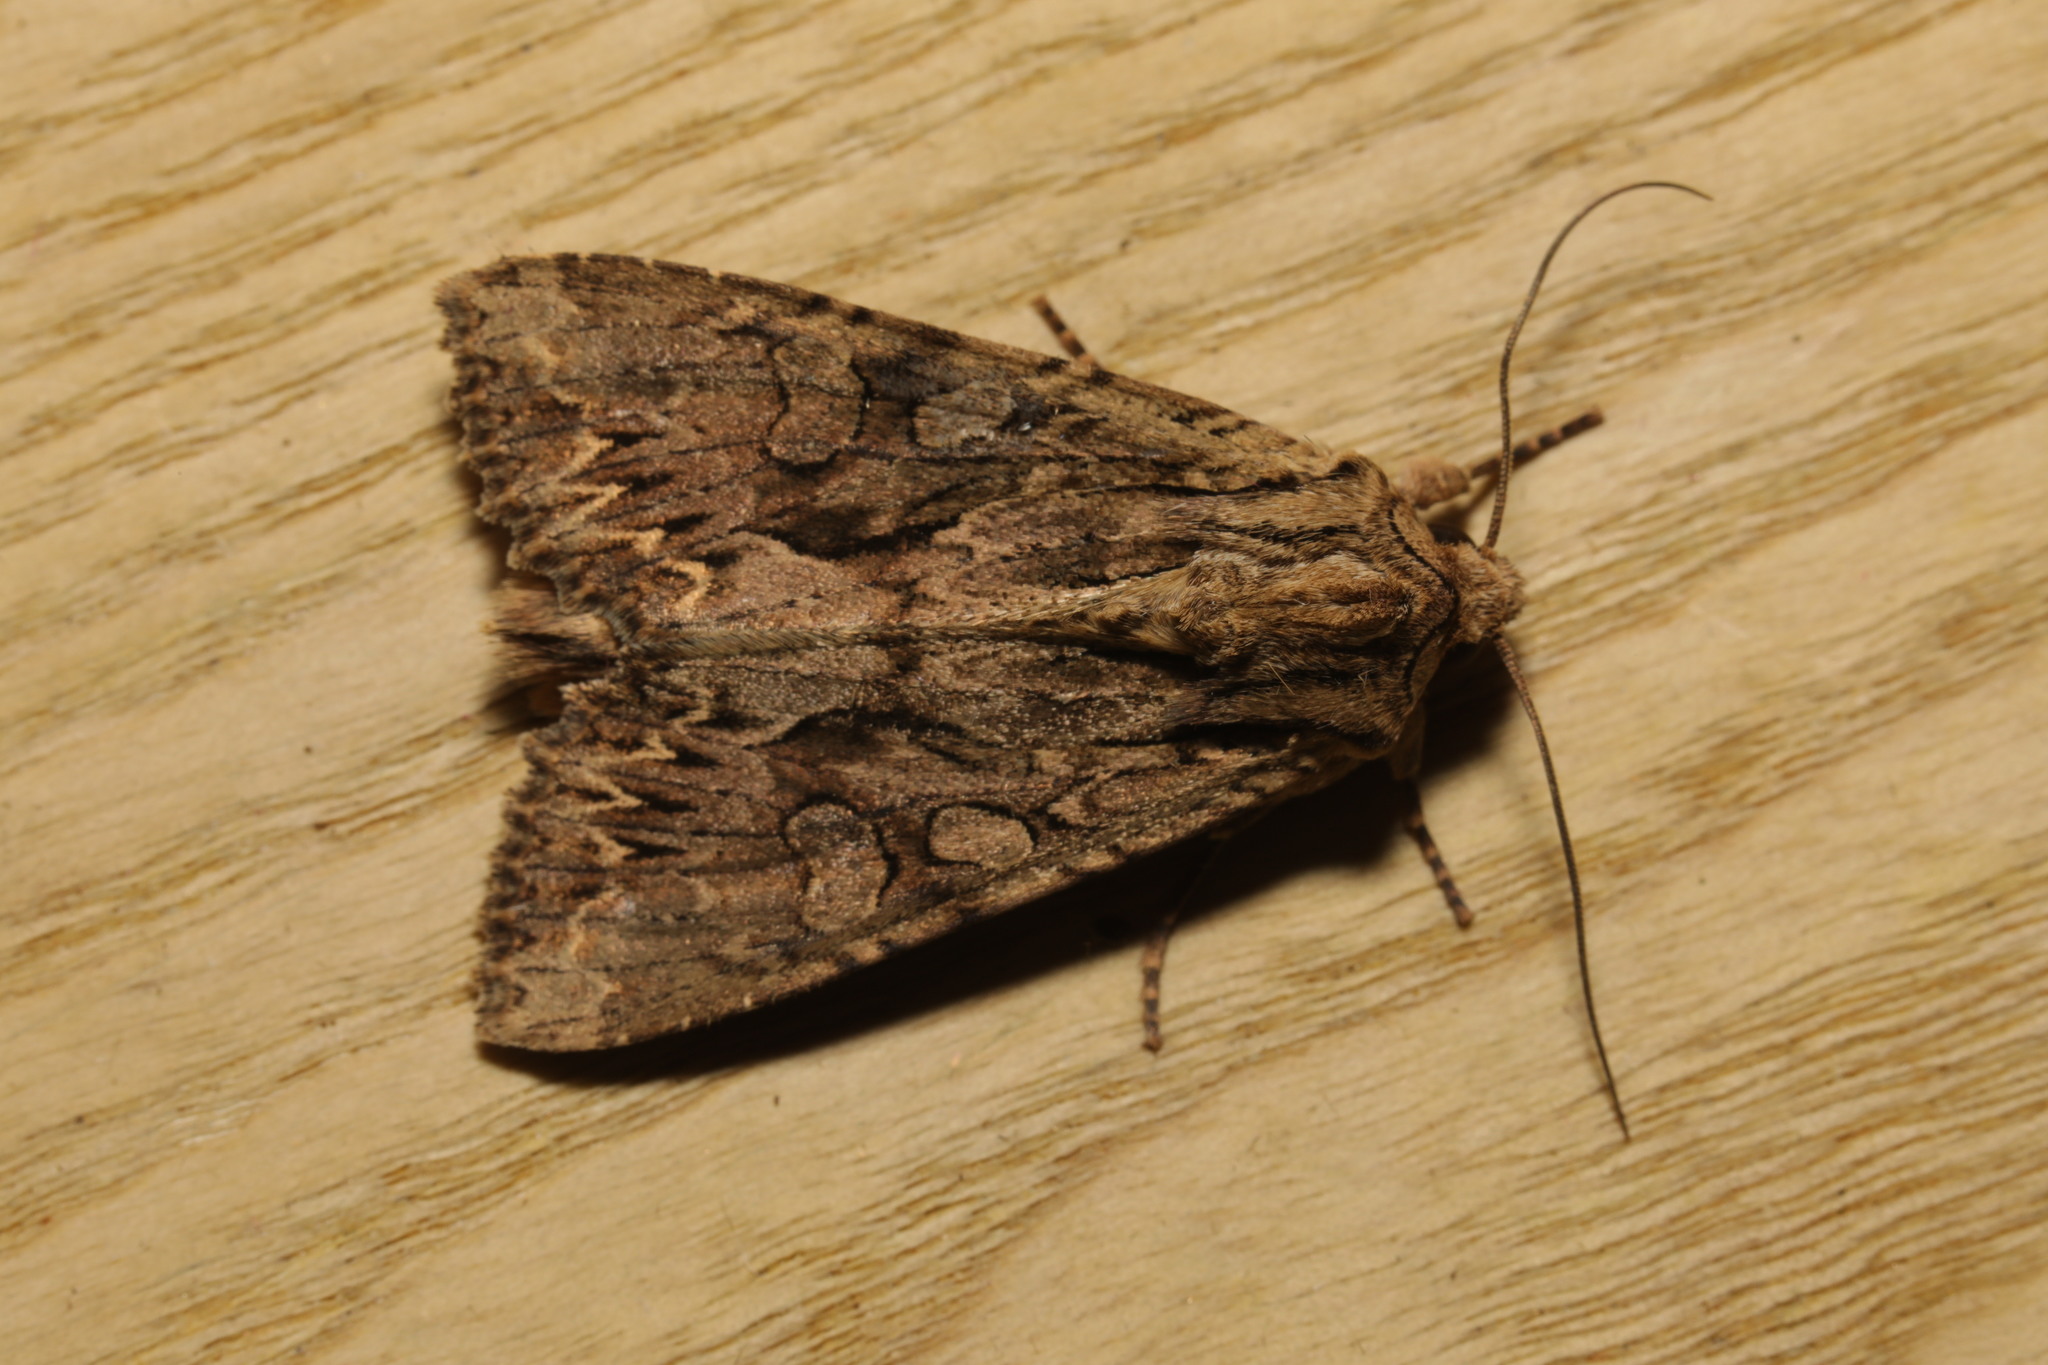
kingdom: Animalia
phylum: Arthropoda
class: Insecta
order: Lepidoptera
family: Noctuidae
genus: Apamea
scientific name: Apamea monoglypha
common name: Dark arches
